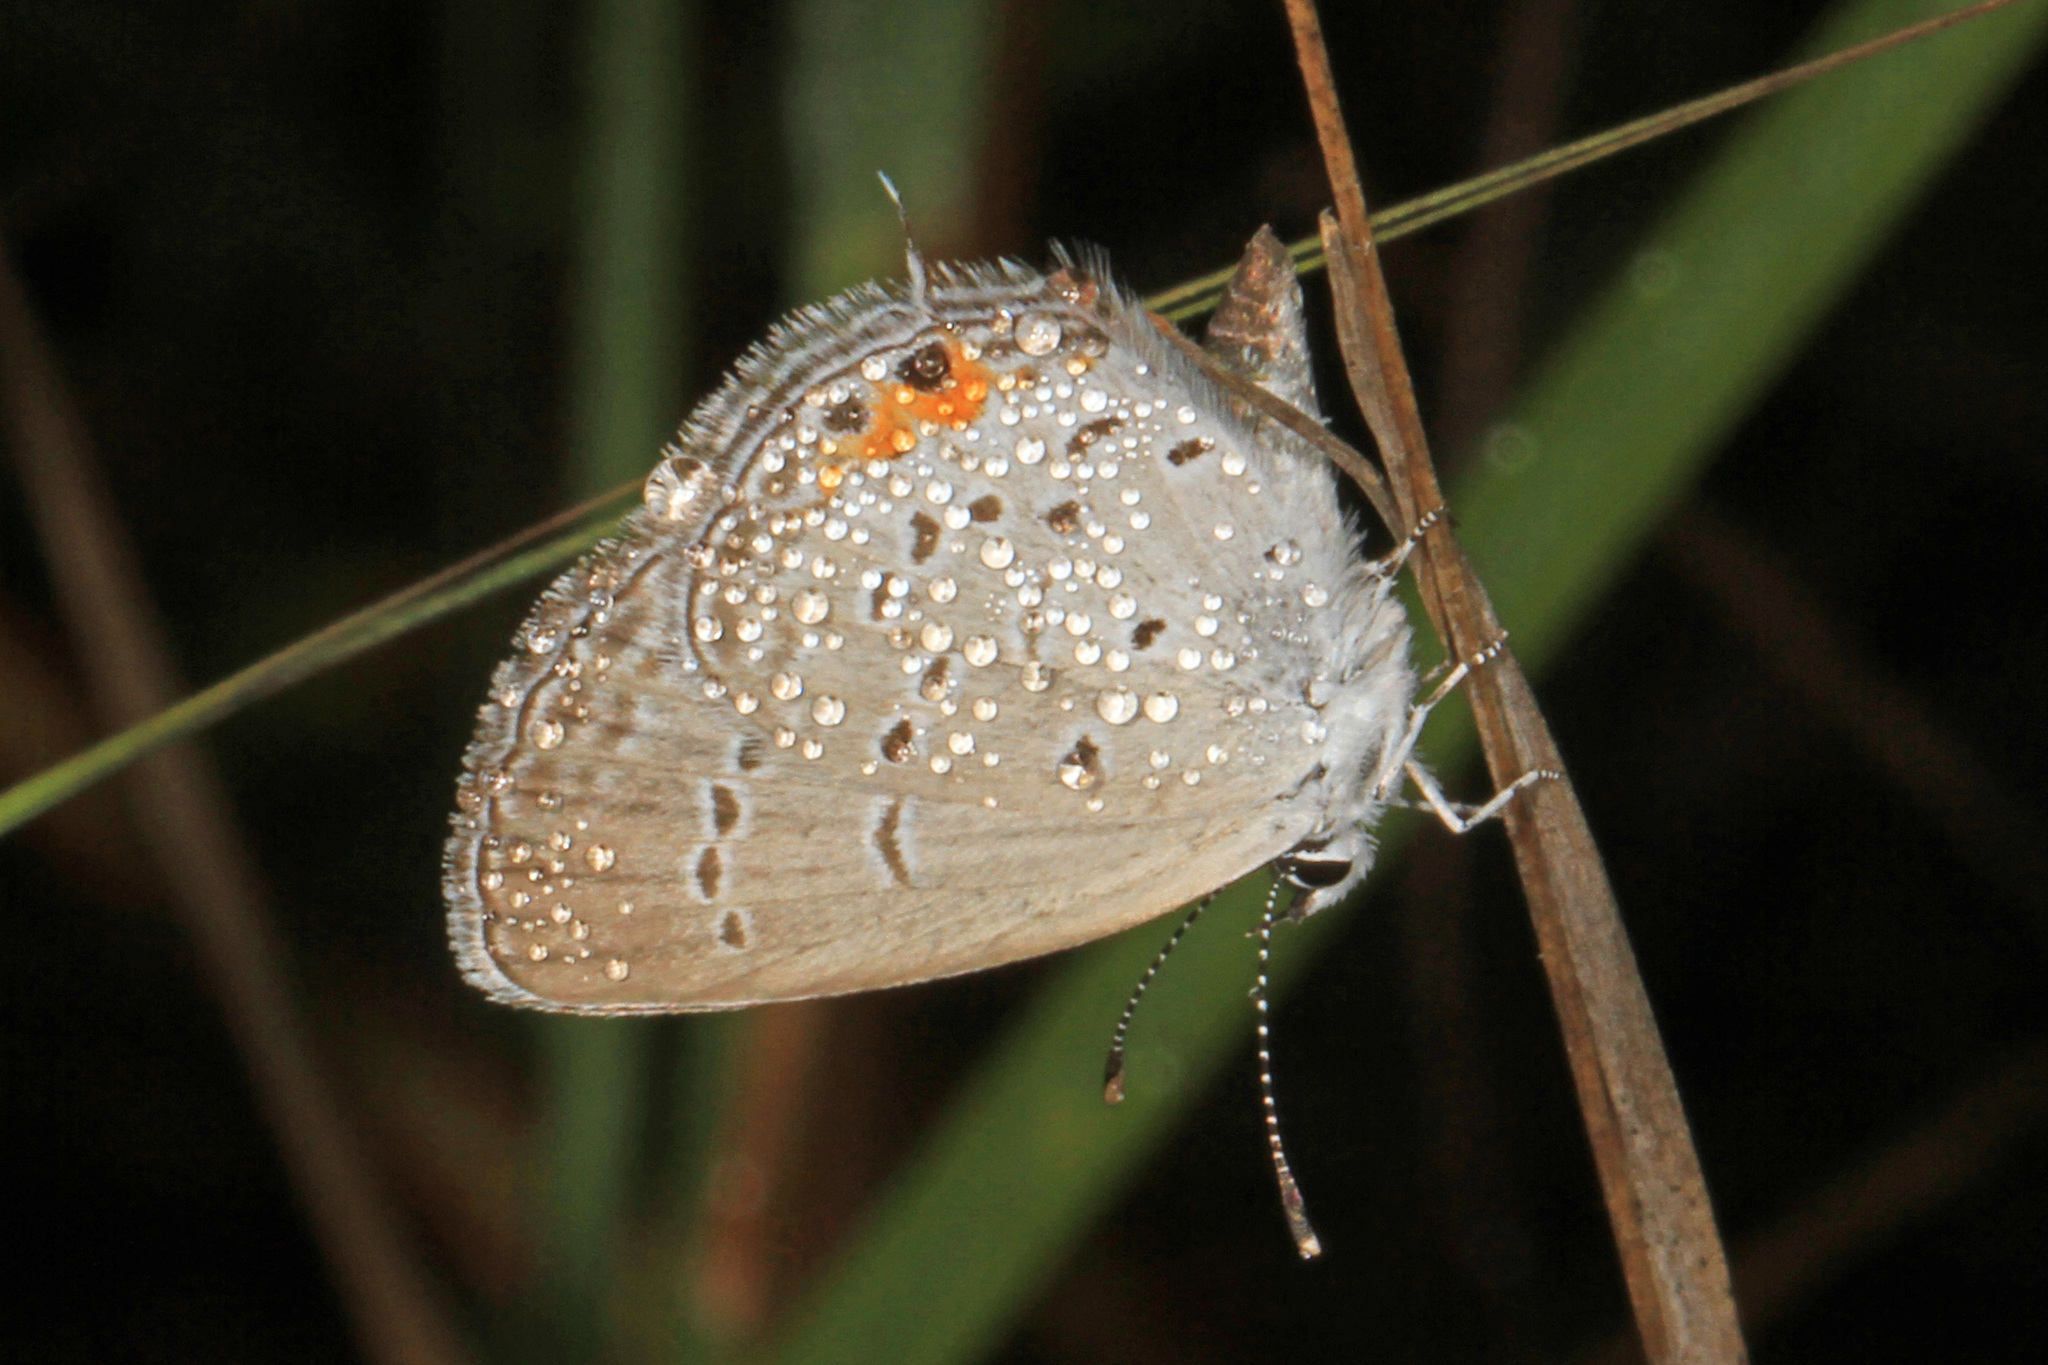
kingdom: Animalia
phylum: Arthropoda
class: Insecta
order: Lepidoptera
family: Lycaenidae
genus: Elkalyce
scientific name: Elkalyce comyntas
